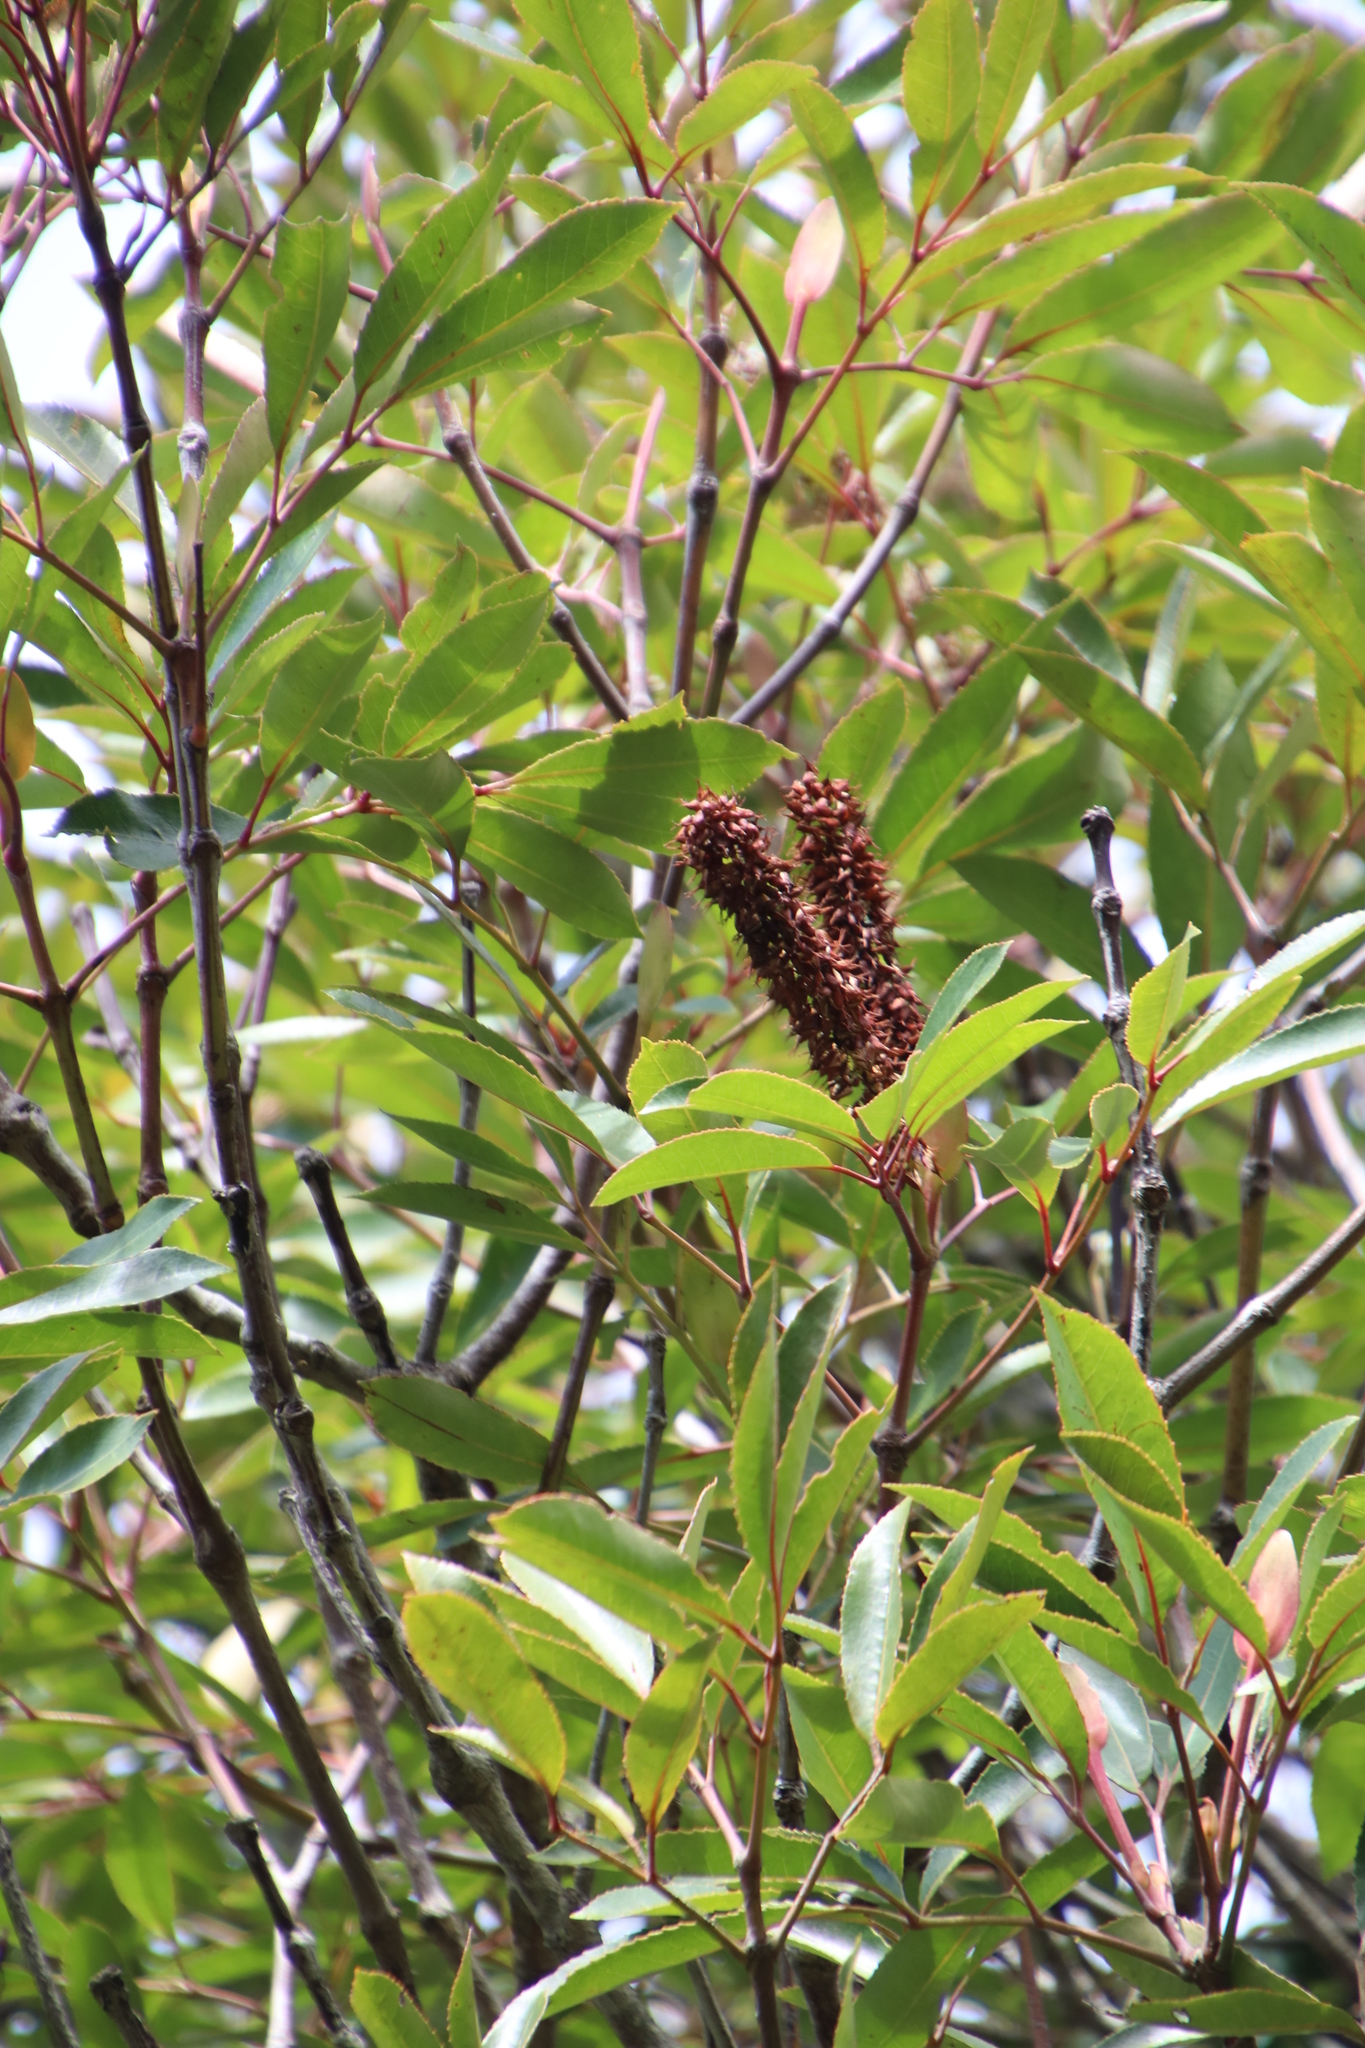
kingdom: Plantae
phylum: Tracheophyta
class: Magnoliopsida
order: Oxalidales
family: Cunoniaceae
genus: Cunonia
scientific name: Cunonia capensis
